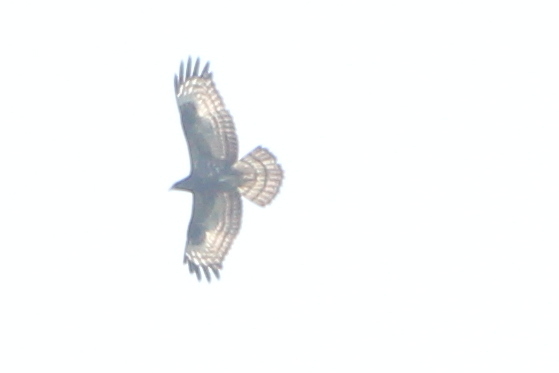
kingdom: Animalia
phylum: Chordata
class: Aves
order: Accipitriformes
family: Accipitridae
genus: Pernis
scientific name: Pernis apivorus
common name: European honey buzzard
